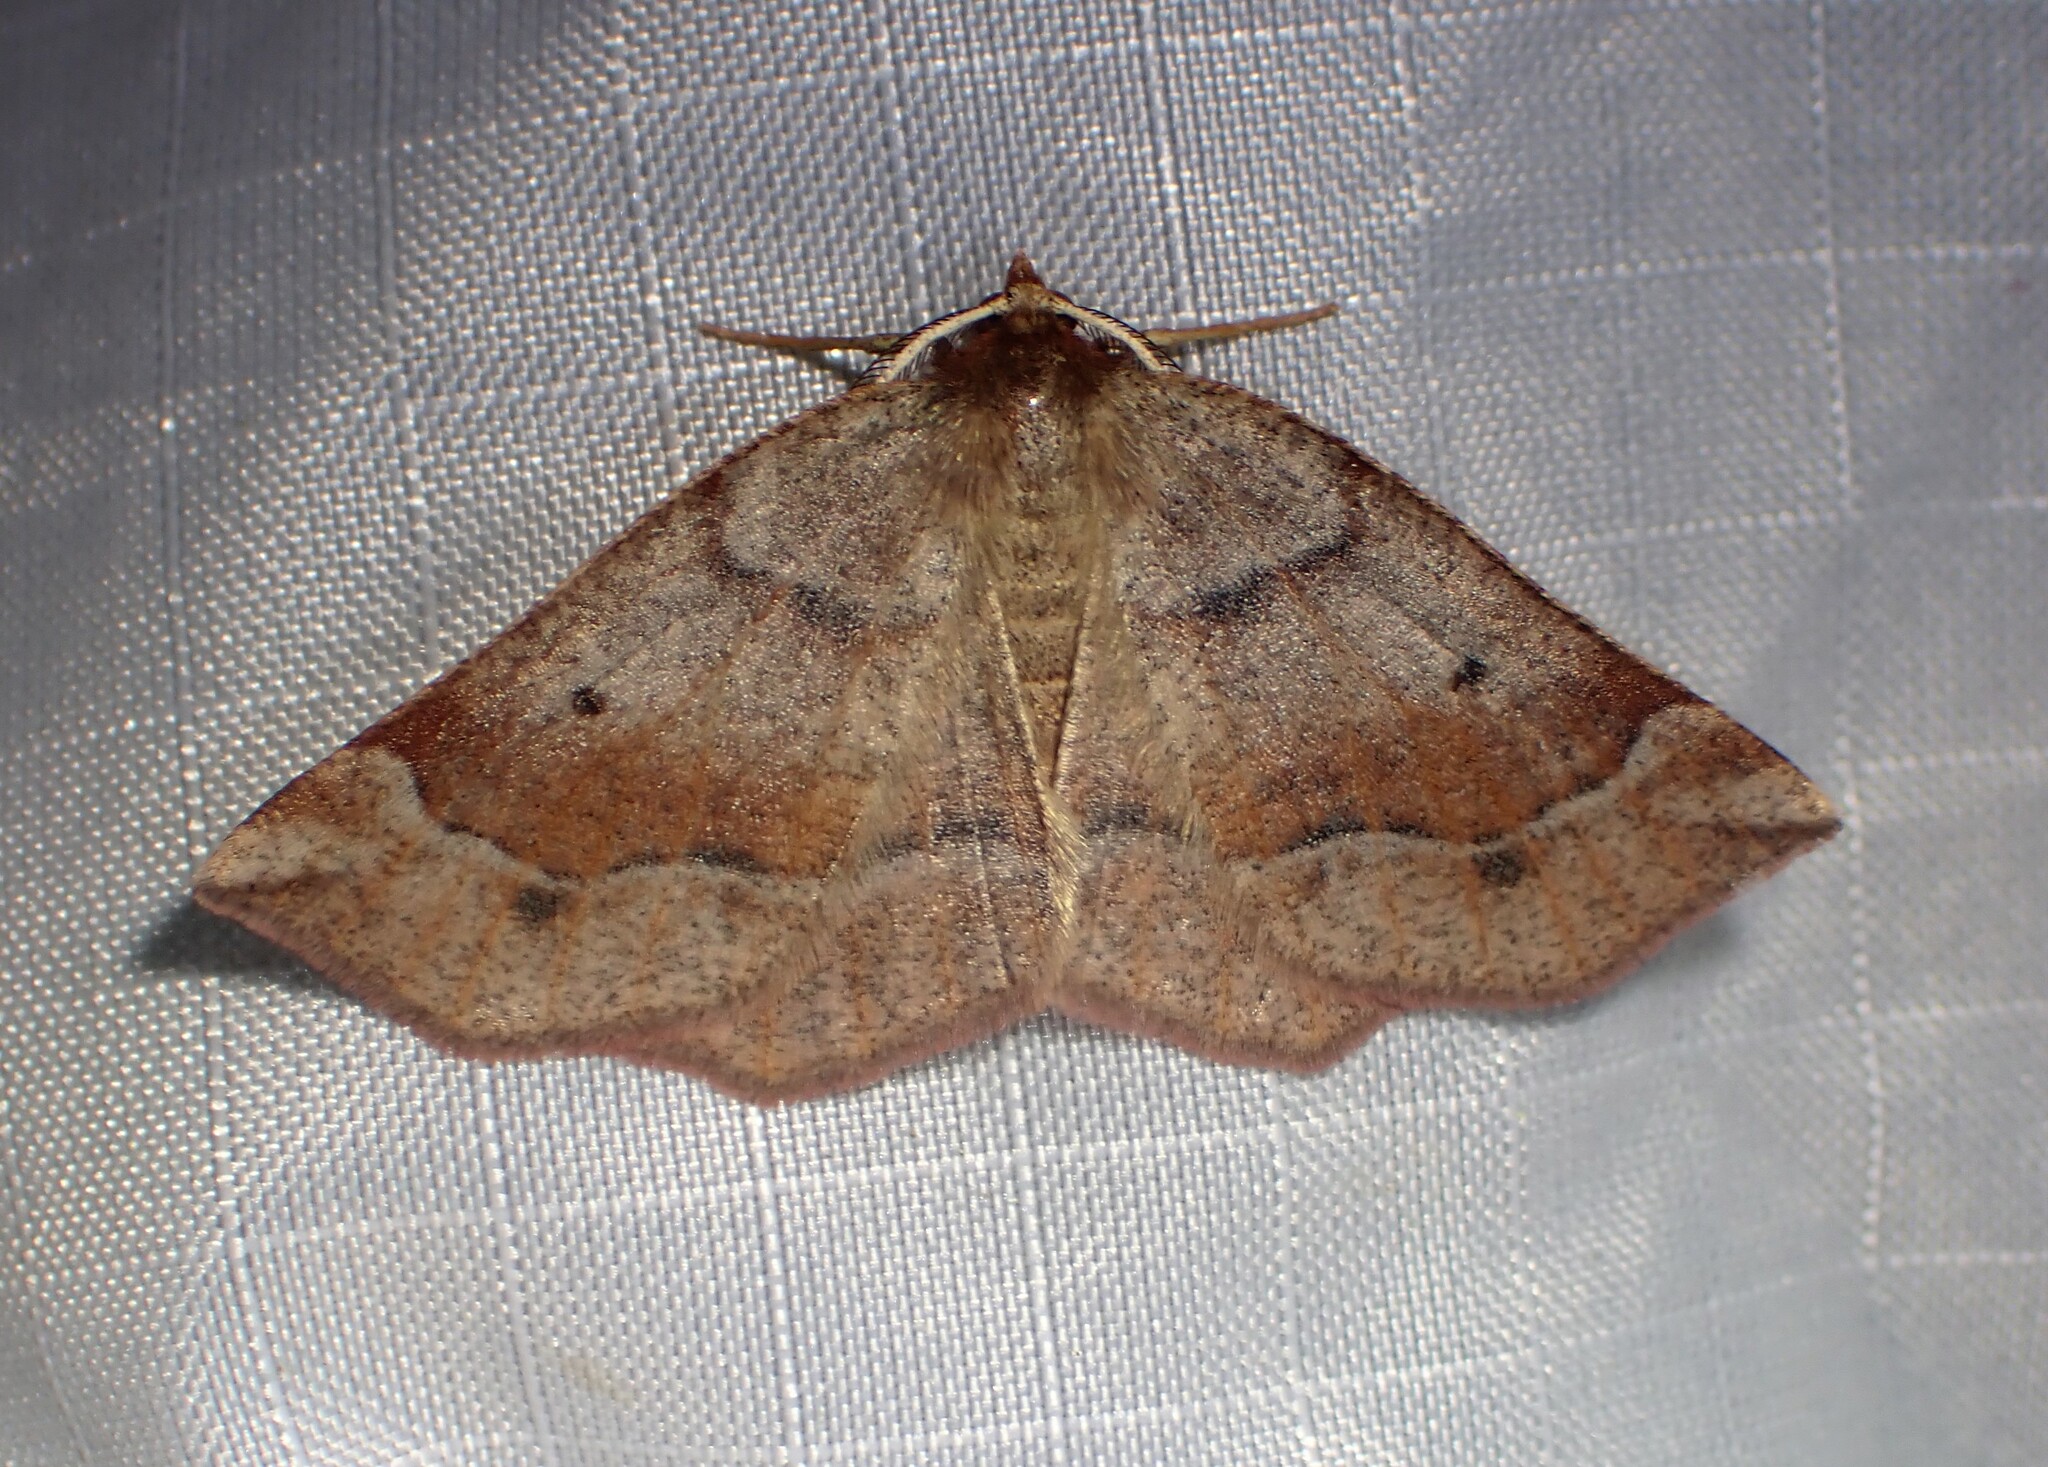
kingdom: Animalia
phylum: Arthropoda
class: Insecta
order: Lepidoptera
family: Geometridae
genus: Metarranthis
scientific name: Metarranthis duaria
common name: Ruddy metarranthis moth
